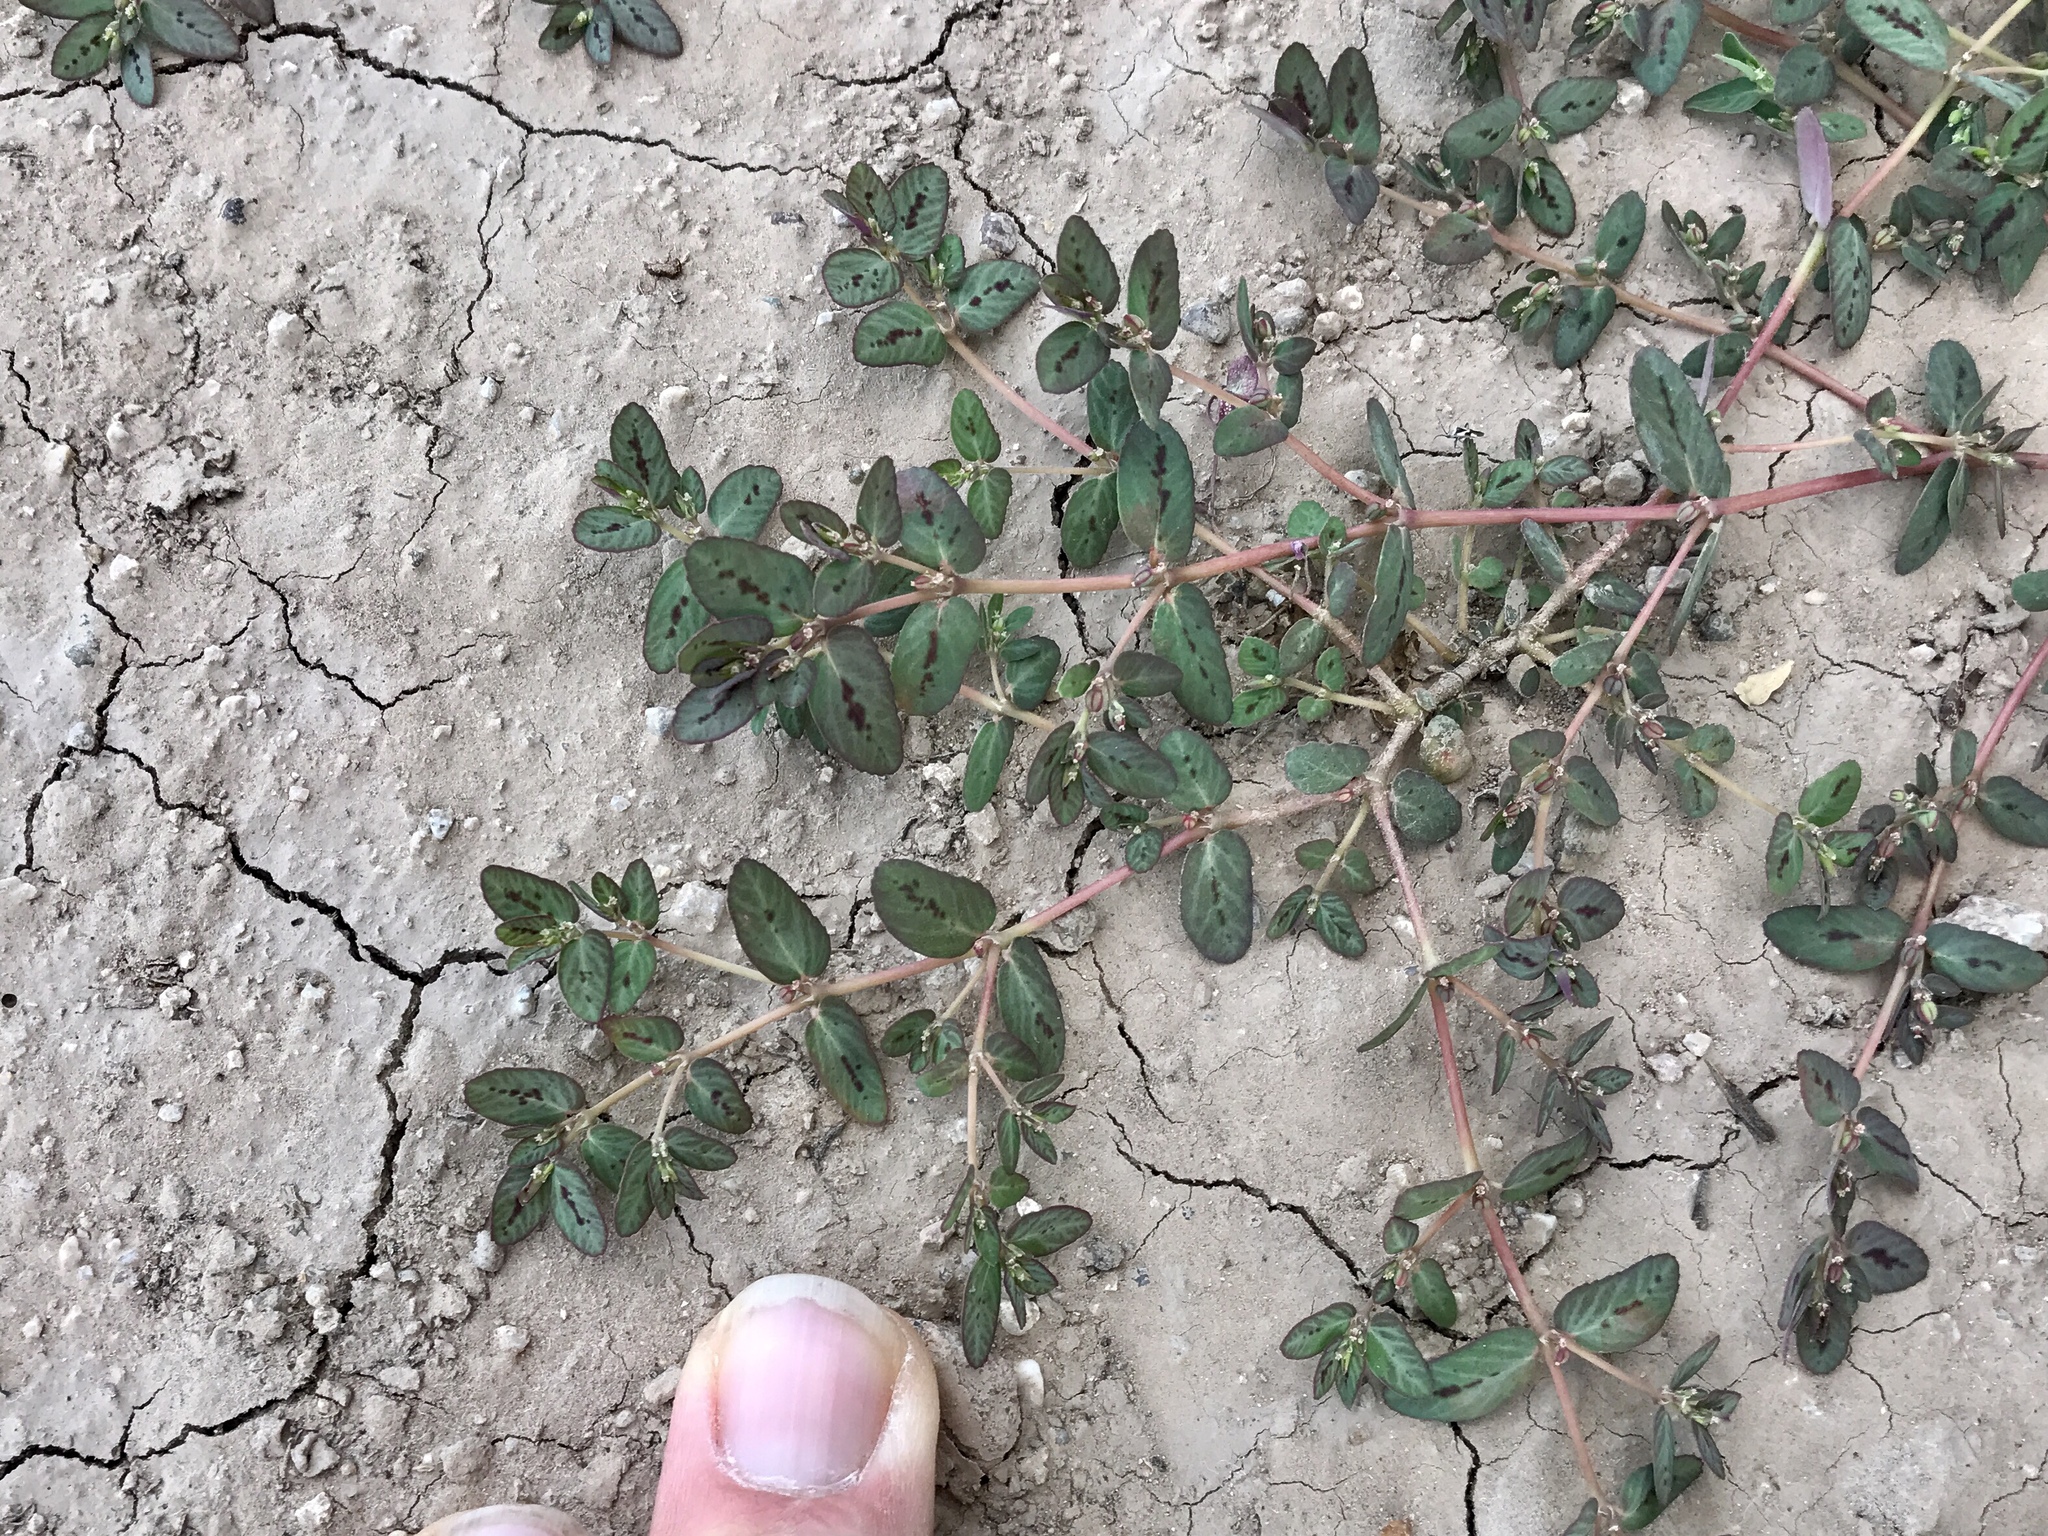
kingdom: Plantae
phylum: Tracheophyta
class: Magnoliopsida
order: Malpighiales
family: Euphorbiaceae
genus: Euphorbia
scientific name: Euphorbia abramsiana
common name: Abram's spurge
